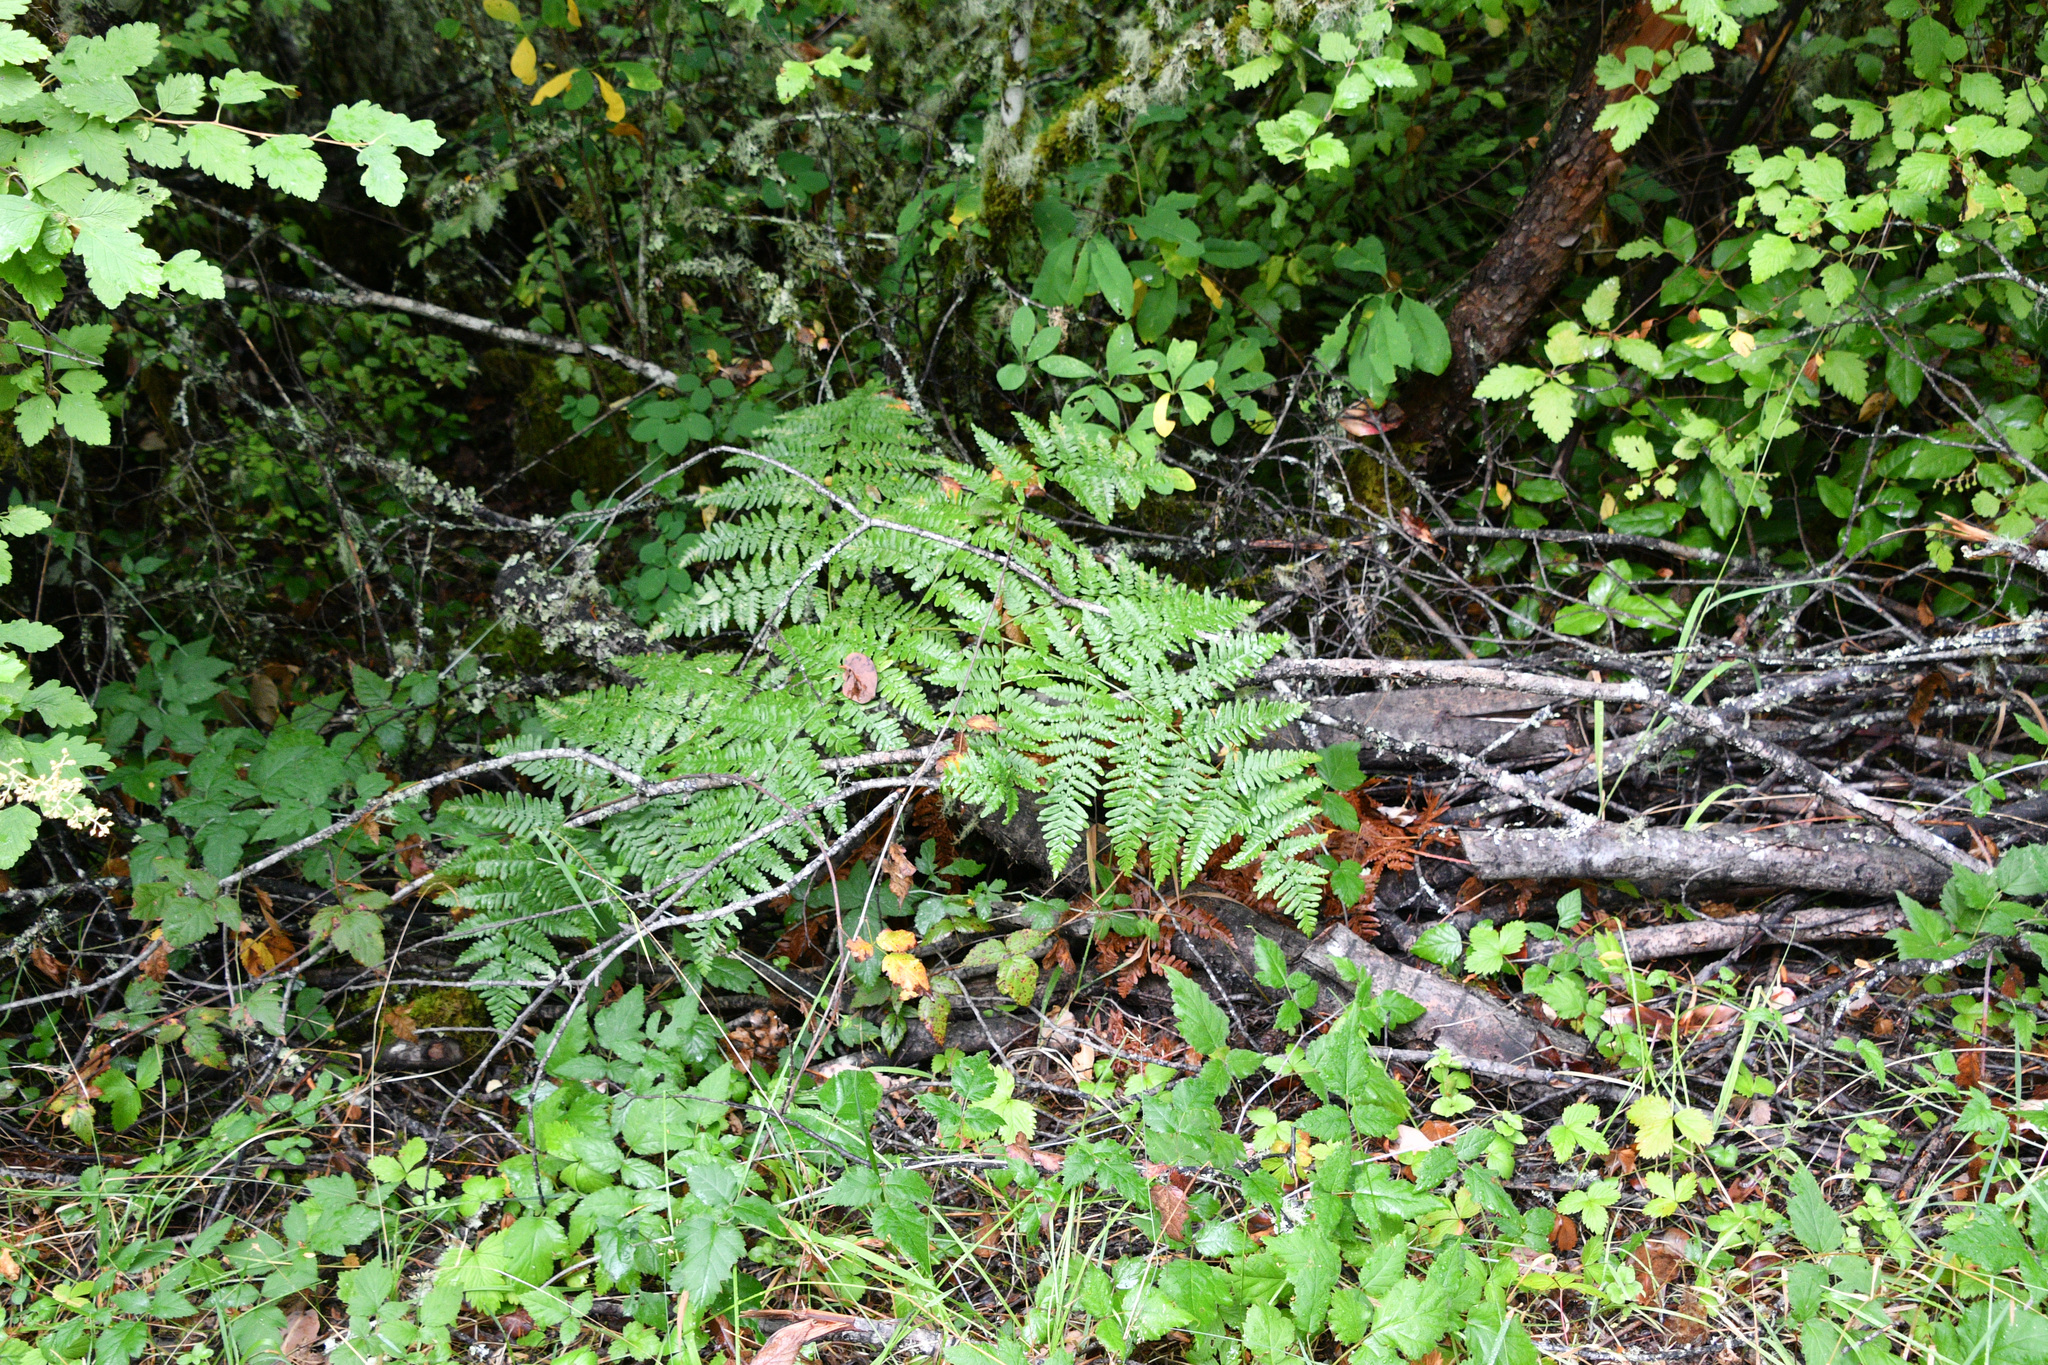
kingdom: Plantae
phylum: Tracheophyta
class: Polypodiopsida
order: Polypodiales
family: Dennstaedtiaceae
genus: Pteridium
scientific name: Pteridium aquilinum
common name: Bracken
